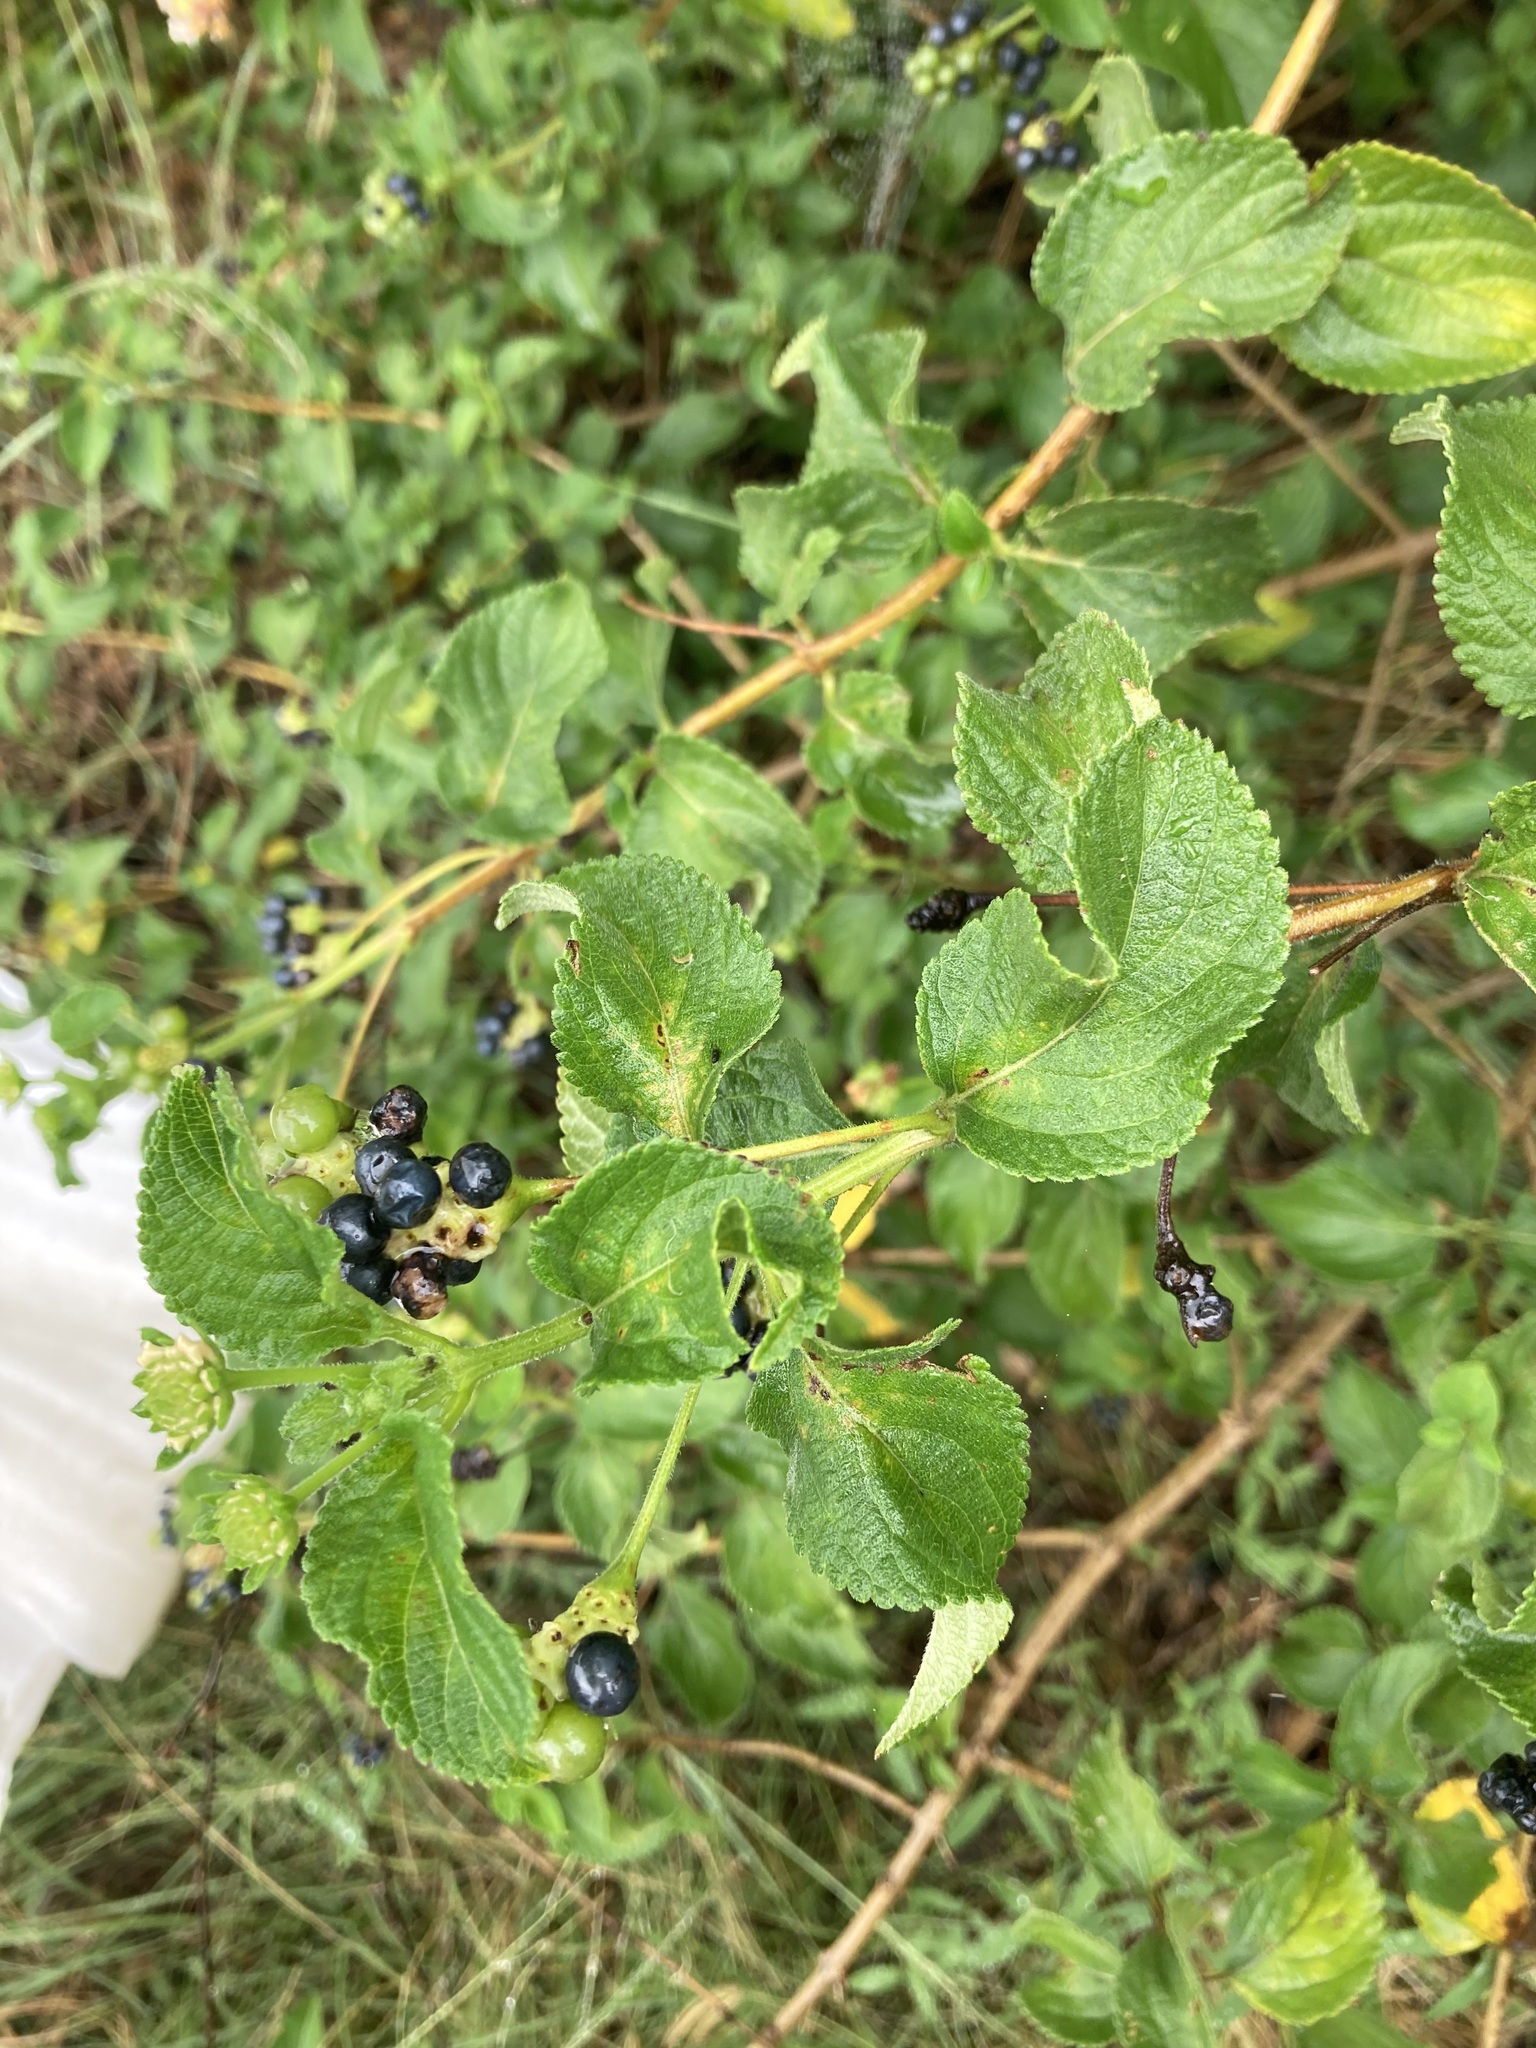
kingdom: Plantae
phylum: Tracheophyta
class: Magnoliopsida
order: Lamiales
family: Verbenaceae
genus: Lantana
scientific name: Lantana camara
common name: Lantana
